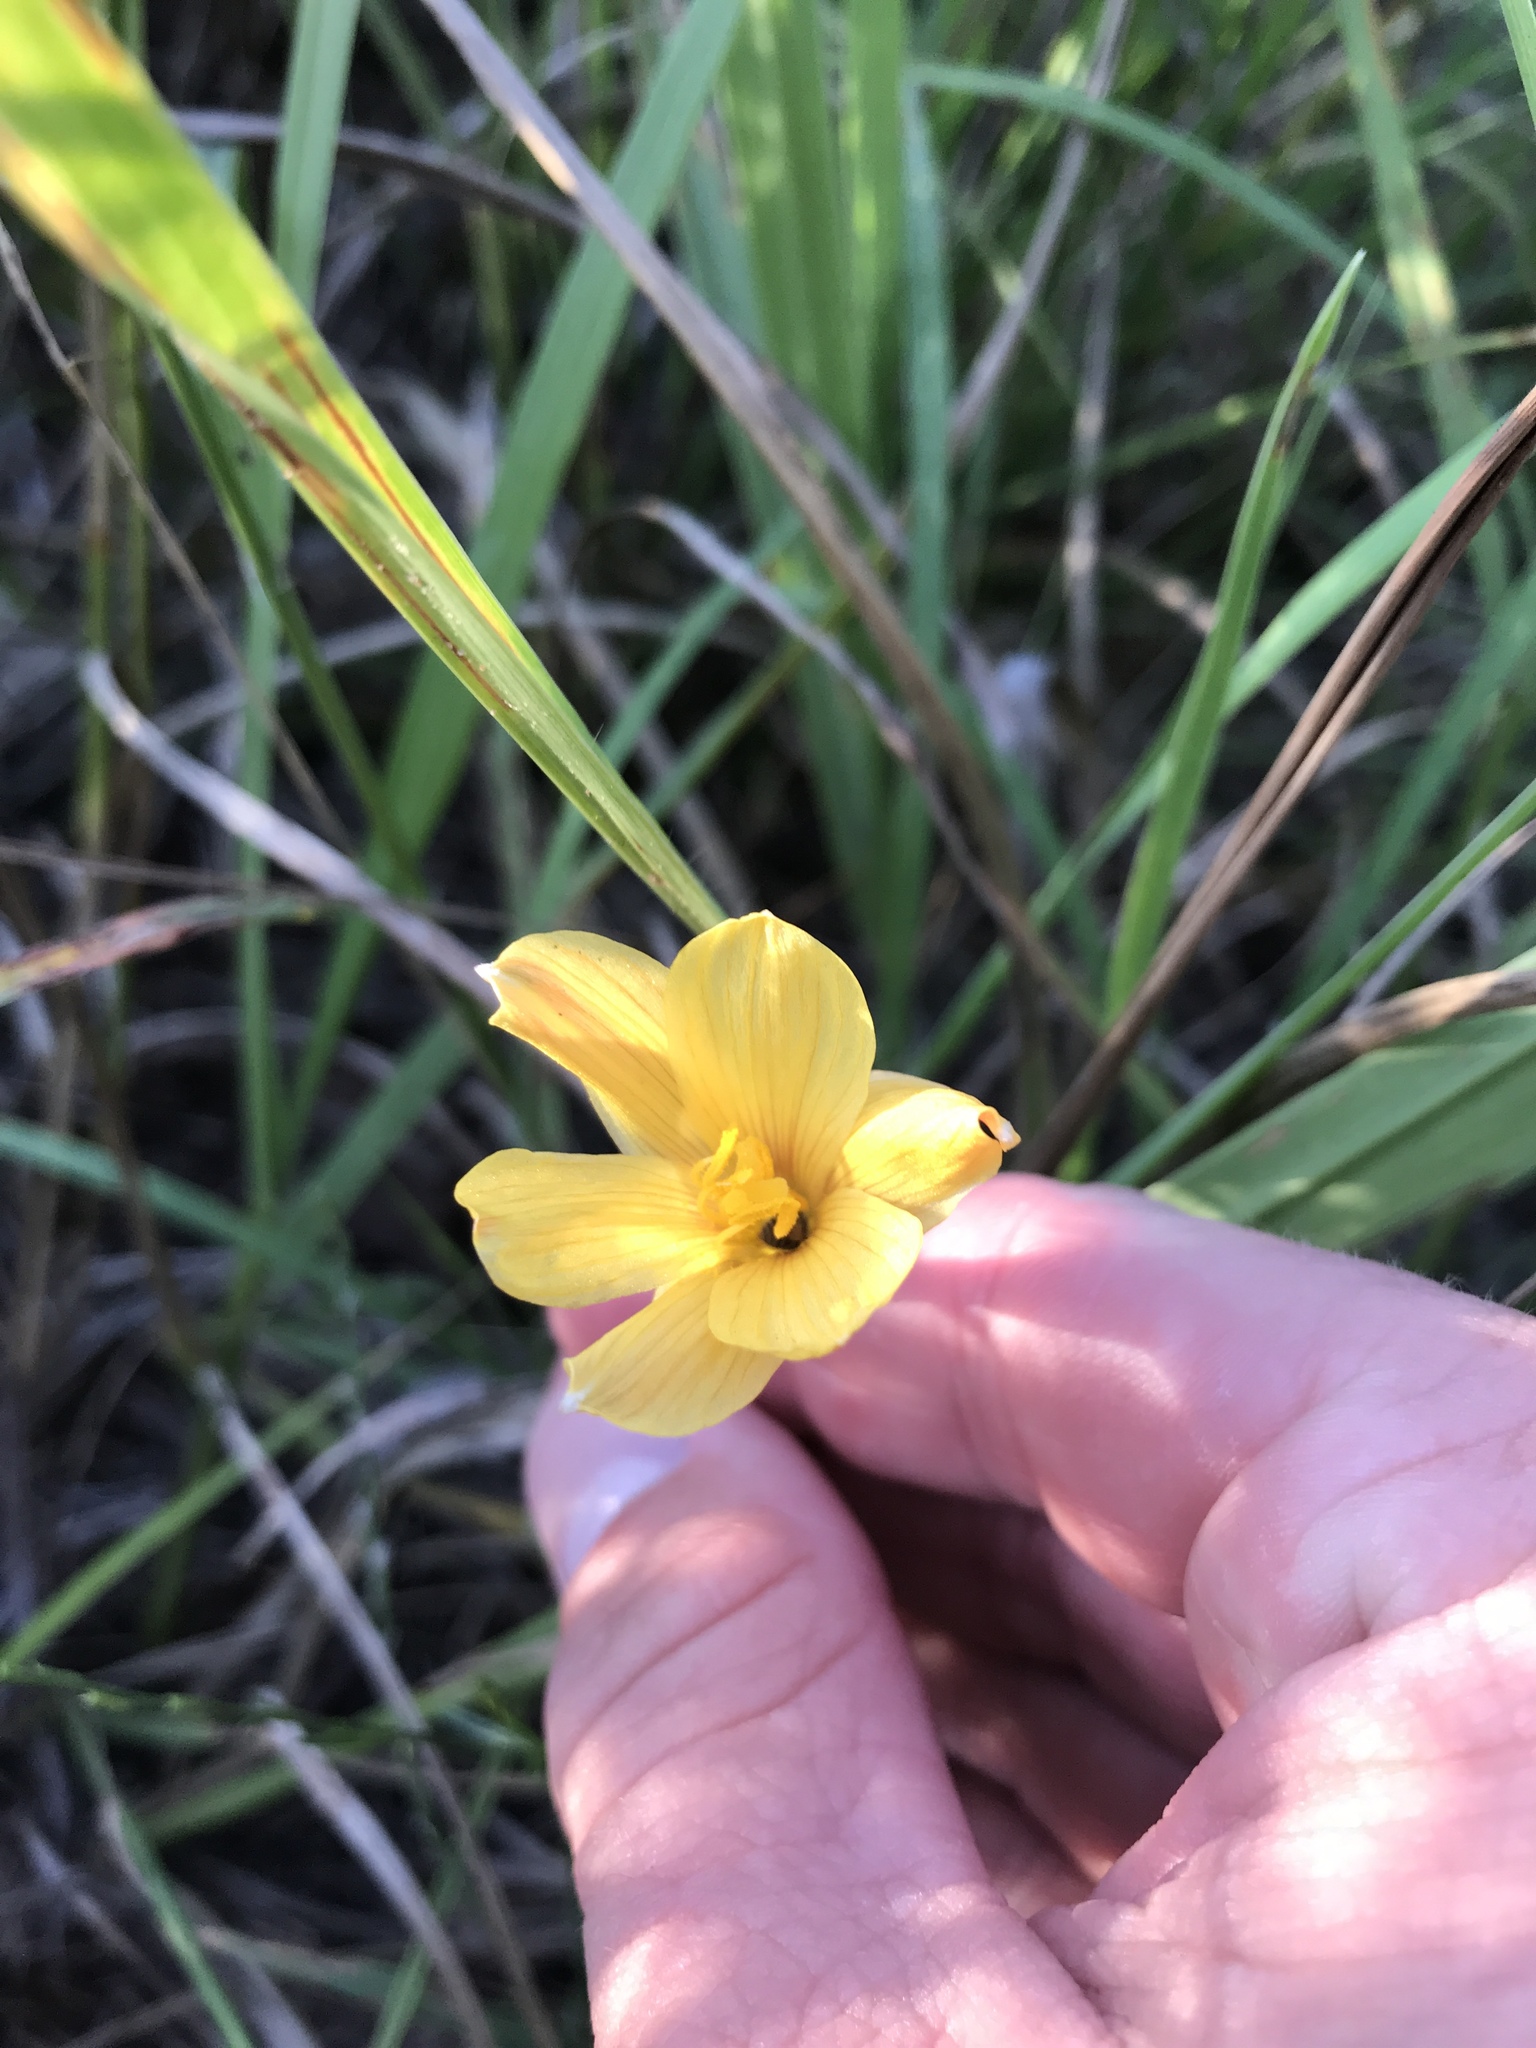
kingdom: Plantae
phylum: Tracheophyta
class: Liliopsida
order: Asparagales
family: Amaryllidaceae
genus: Zephyranthes
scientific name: Zephyranthes tubispatha
